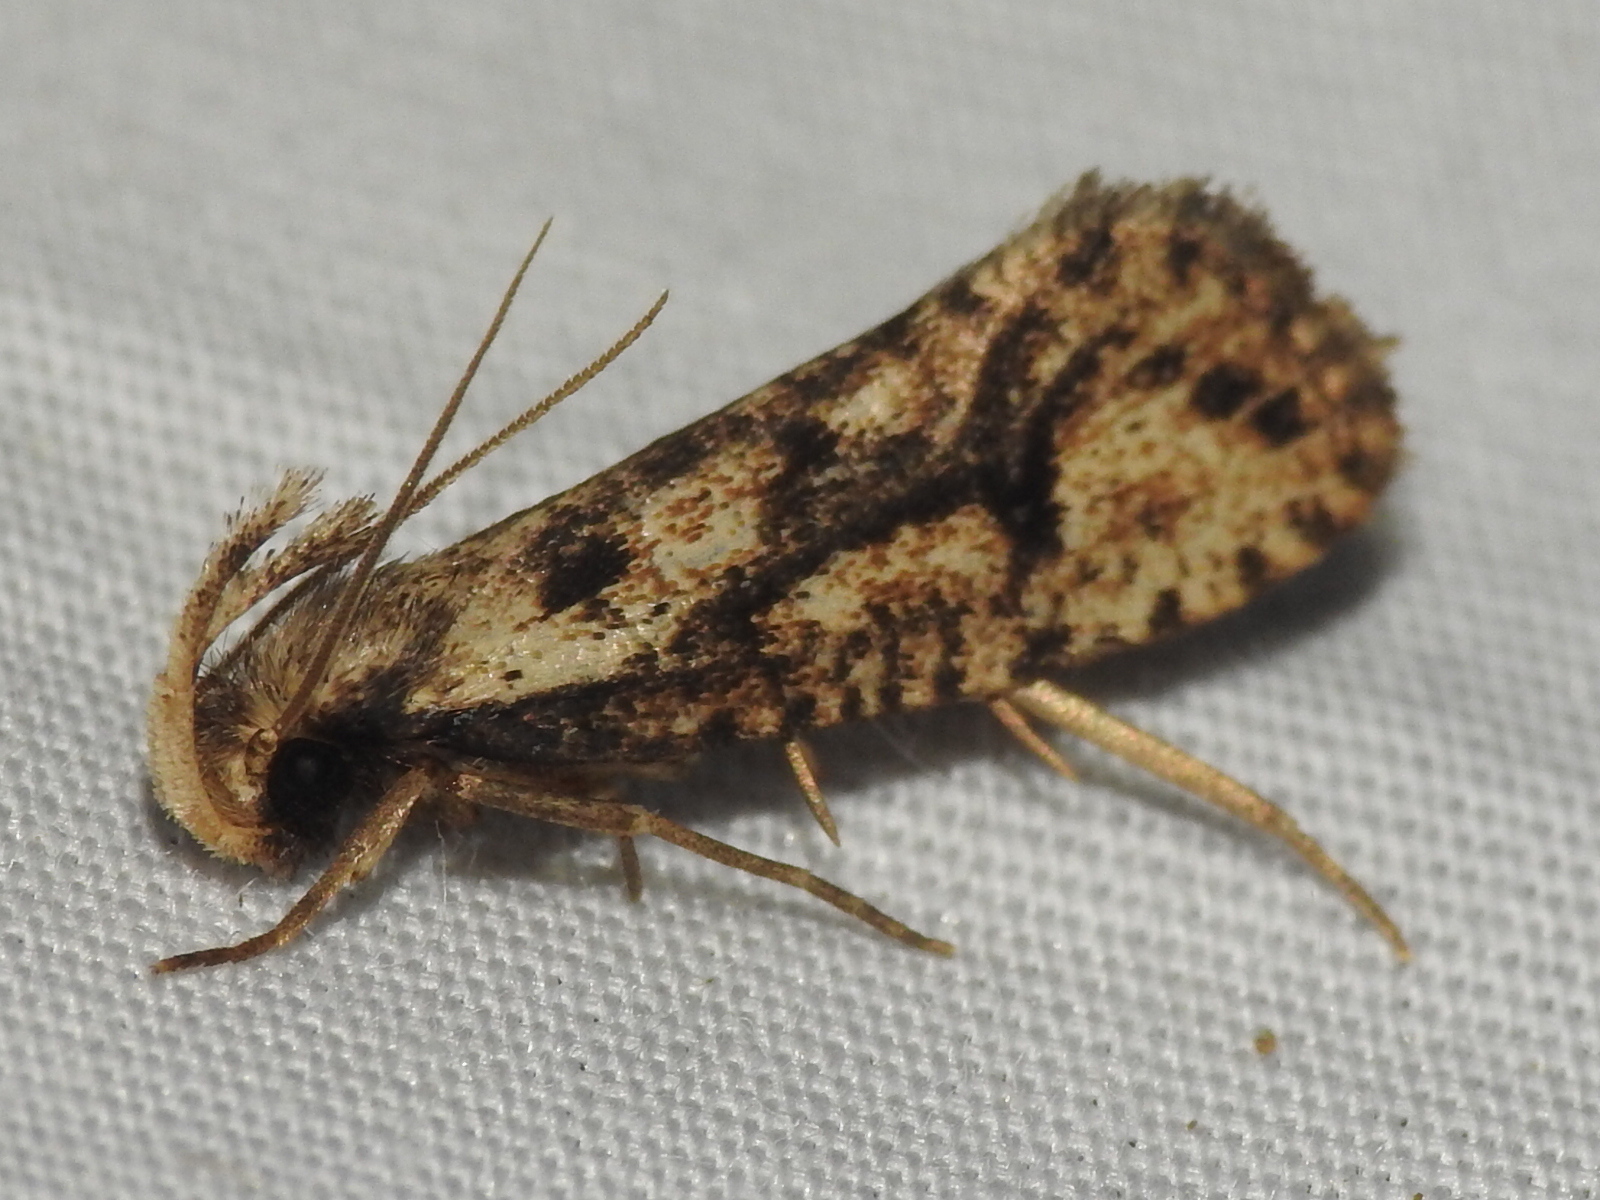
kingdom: Animalia
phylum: Arthropoda
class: Insecta
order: Lepidoptera
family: Tineidae
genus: Acrolophus
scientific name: Acrolophus mortipennella
